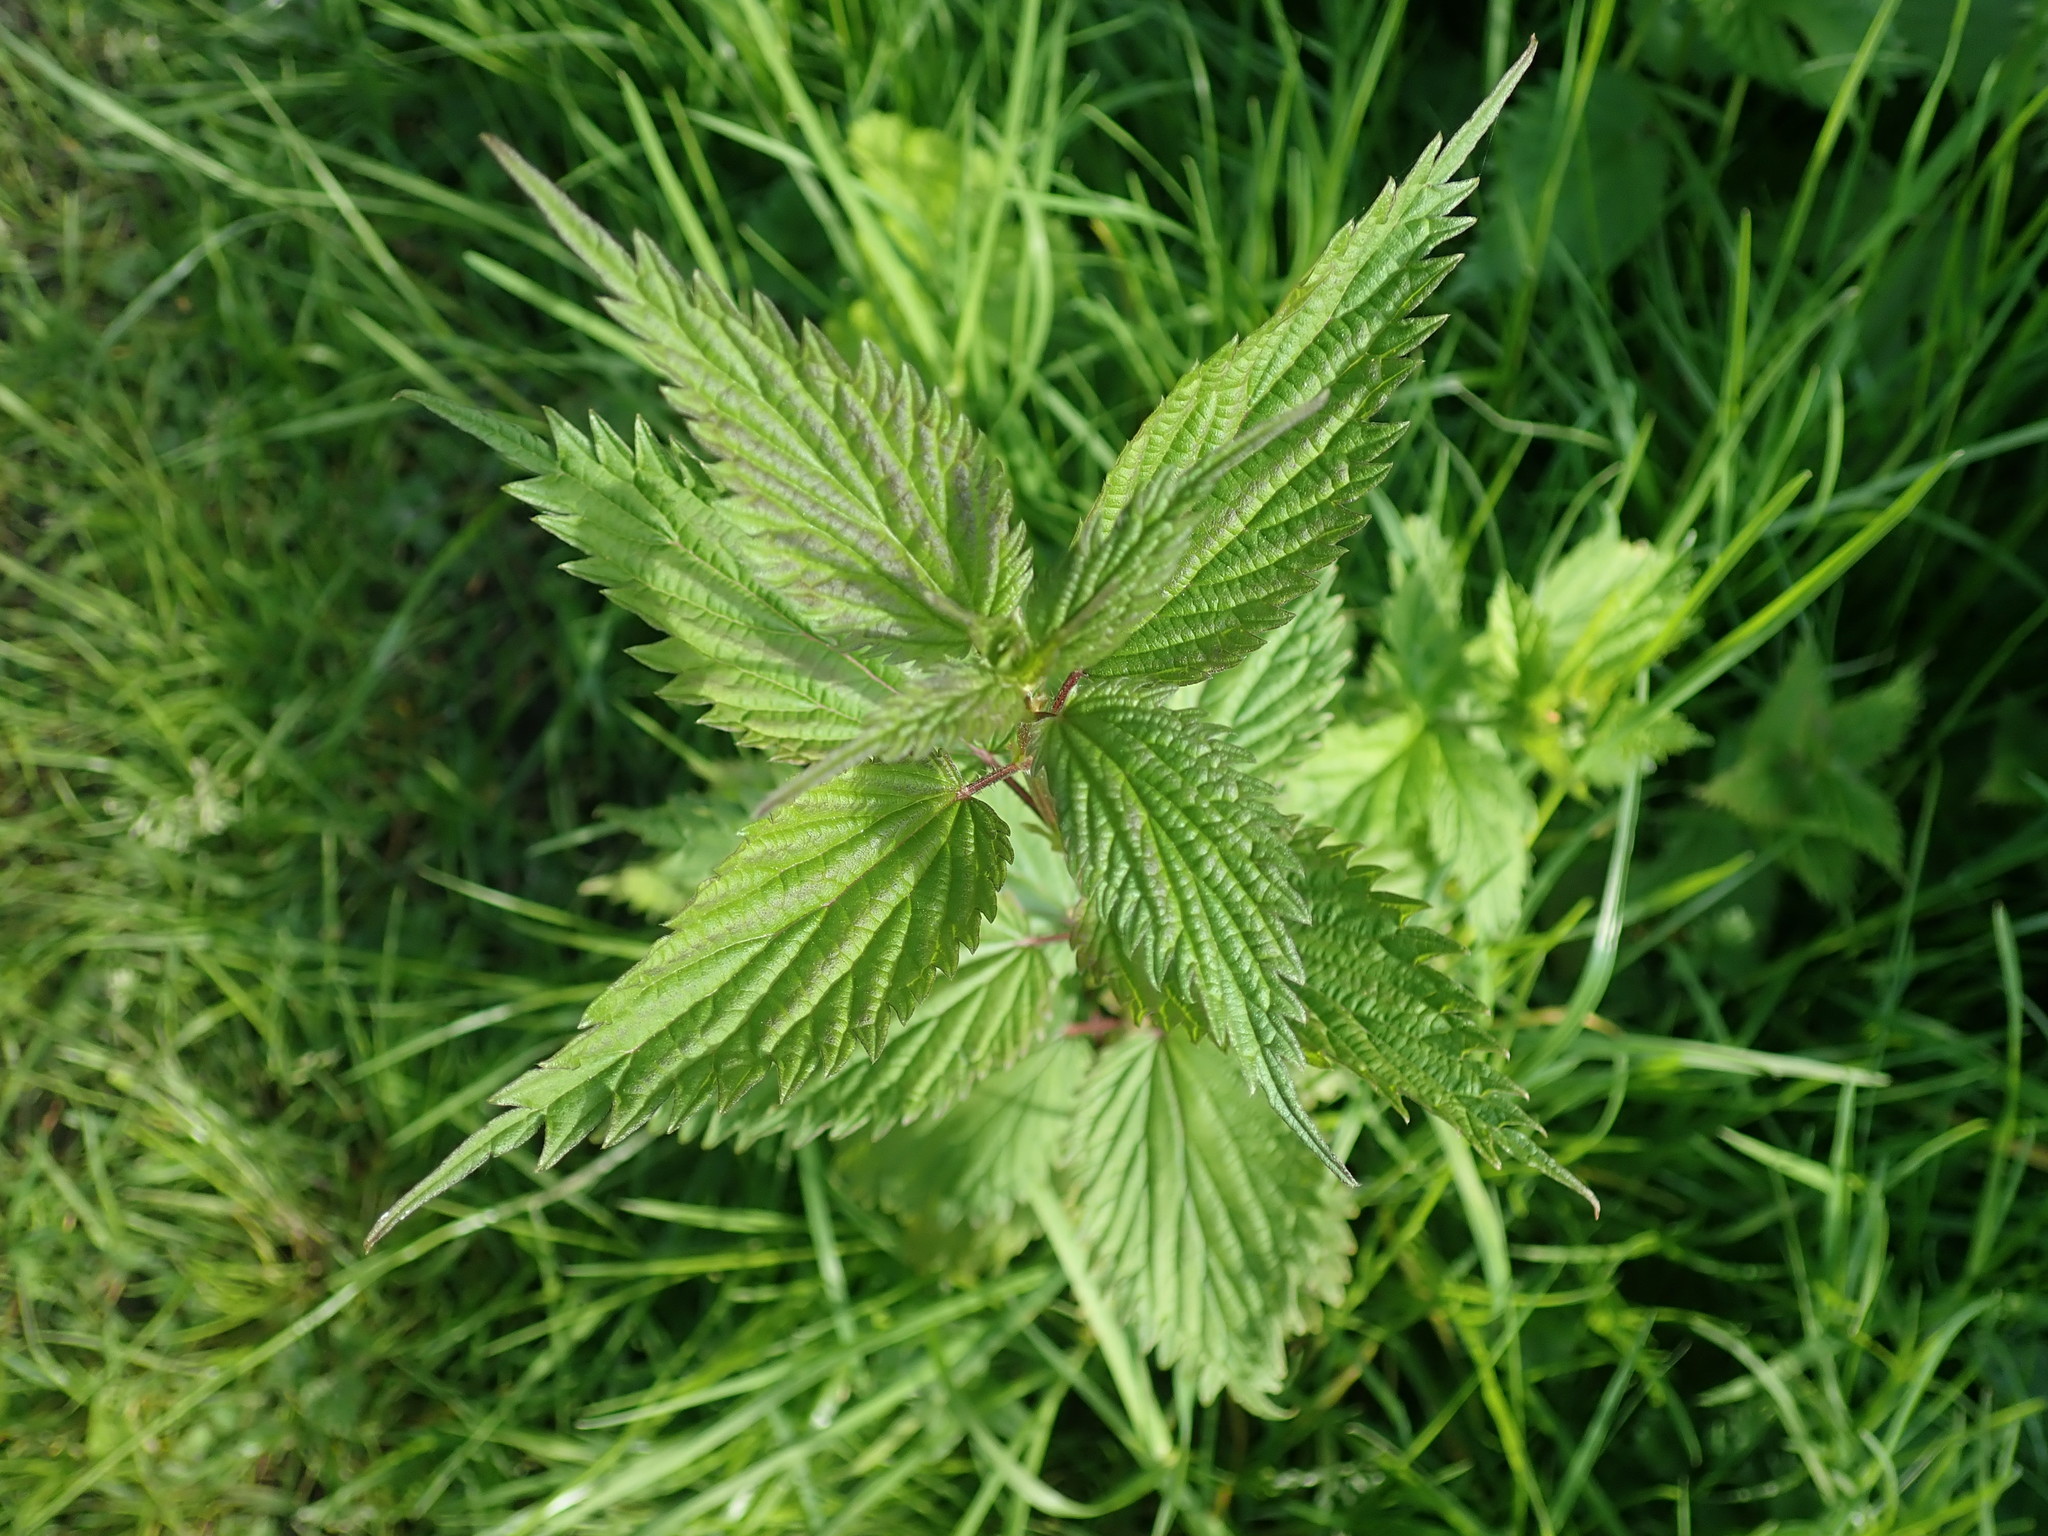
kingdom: Plantae
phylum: Tracheophyta
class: Magnoliopsida
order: Rosales
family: Urticaceae
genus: Urtica
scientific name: Urtica dioica
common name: Common nettle
